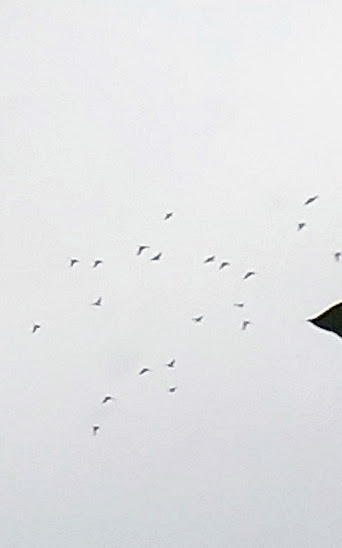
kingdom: Animalia
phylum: Chordata
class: Aves
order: Psittaciformes
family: Psittacidae
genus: Psittacula
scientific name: Psittacula krameri
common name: Rose-ringed parakeet
